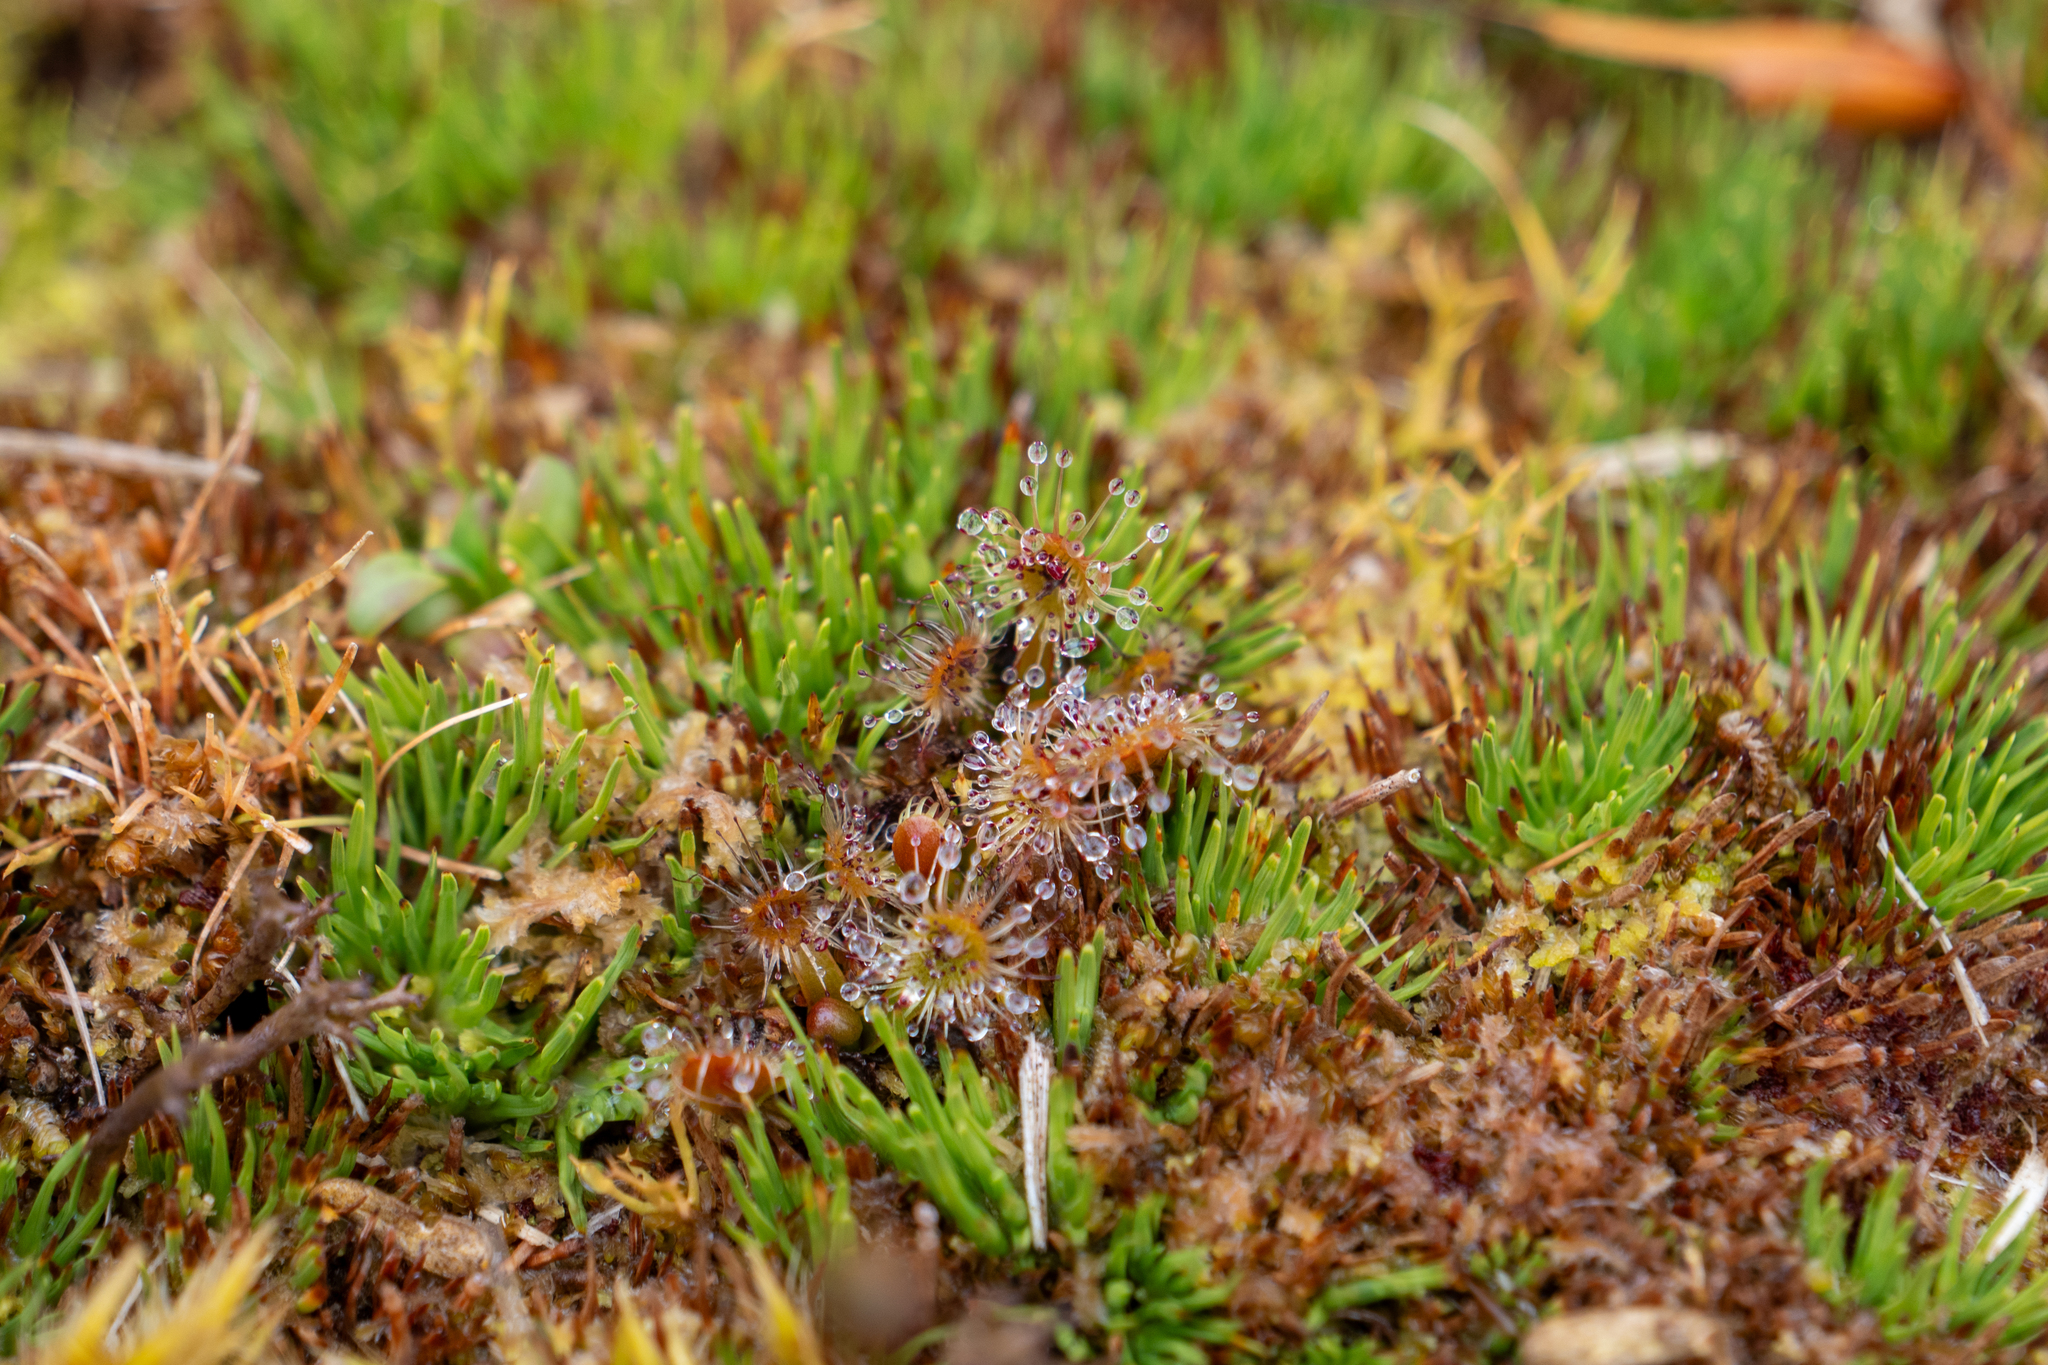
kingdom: Plantae
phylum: Tracheophyta
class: Magnoliopsida
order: Caryophyllales
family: Droseraceae
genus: Drosera
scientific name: Drosera stenopetala
